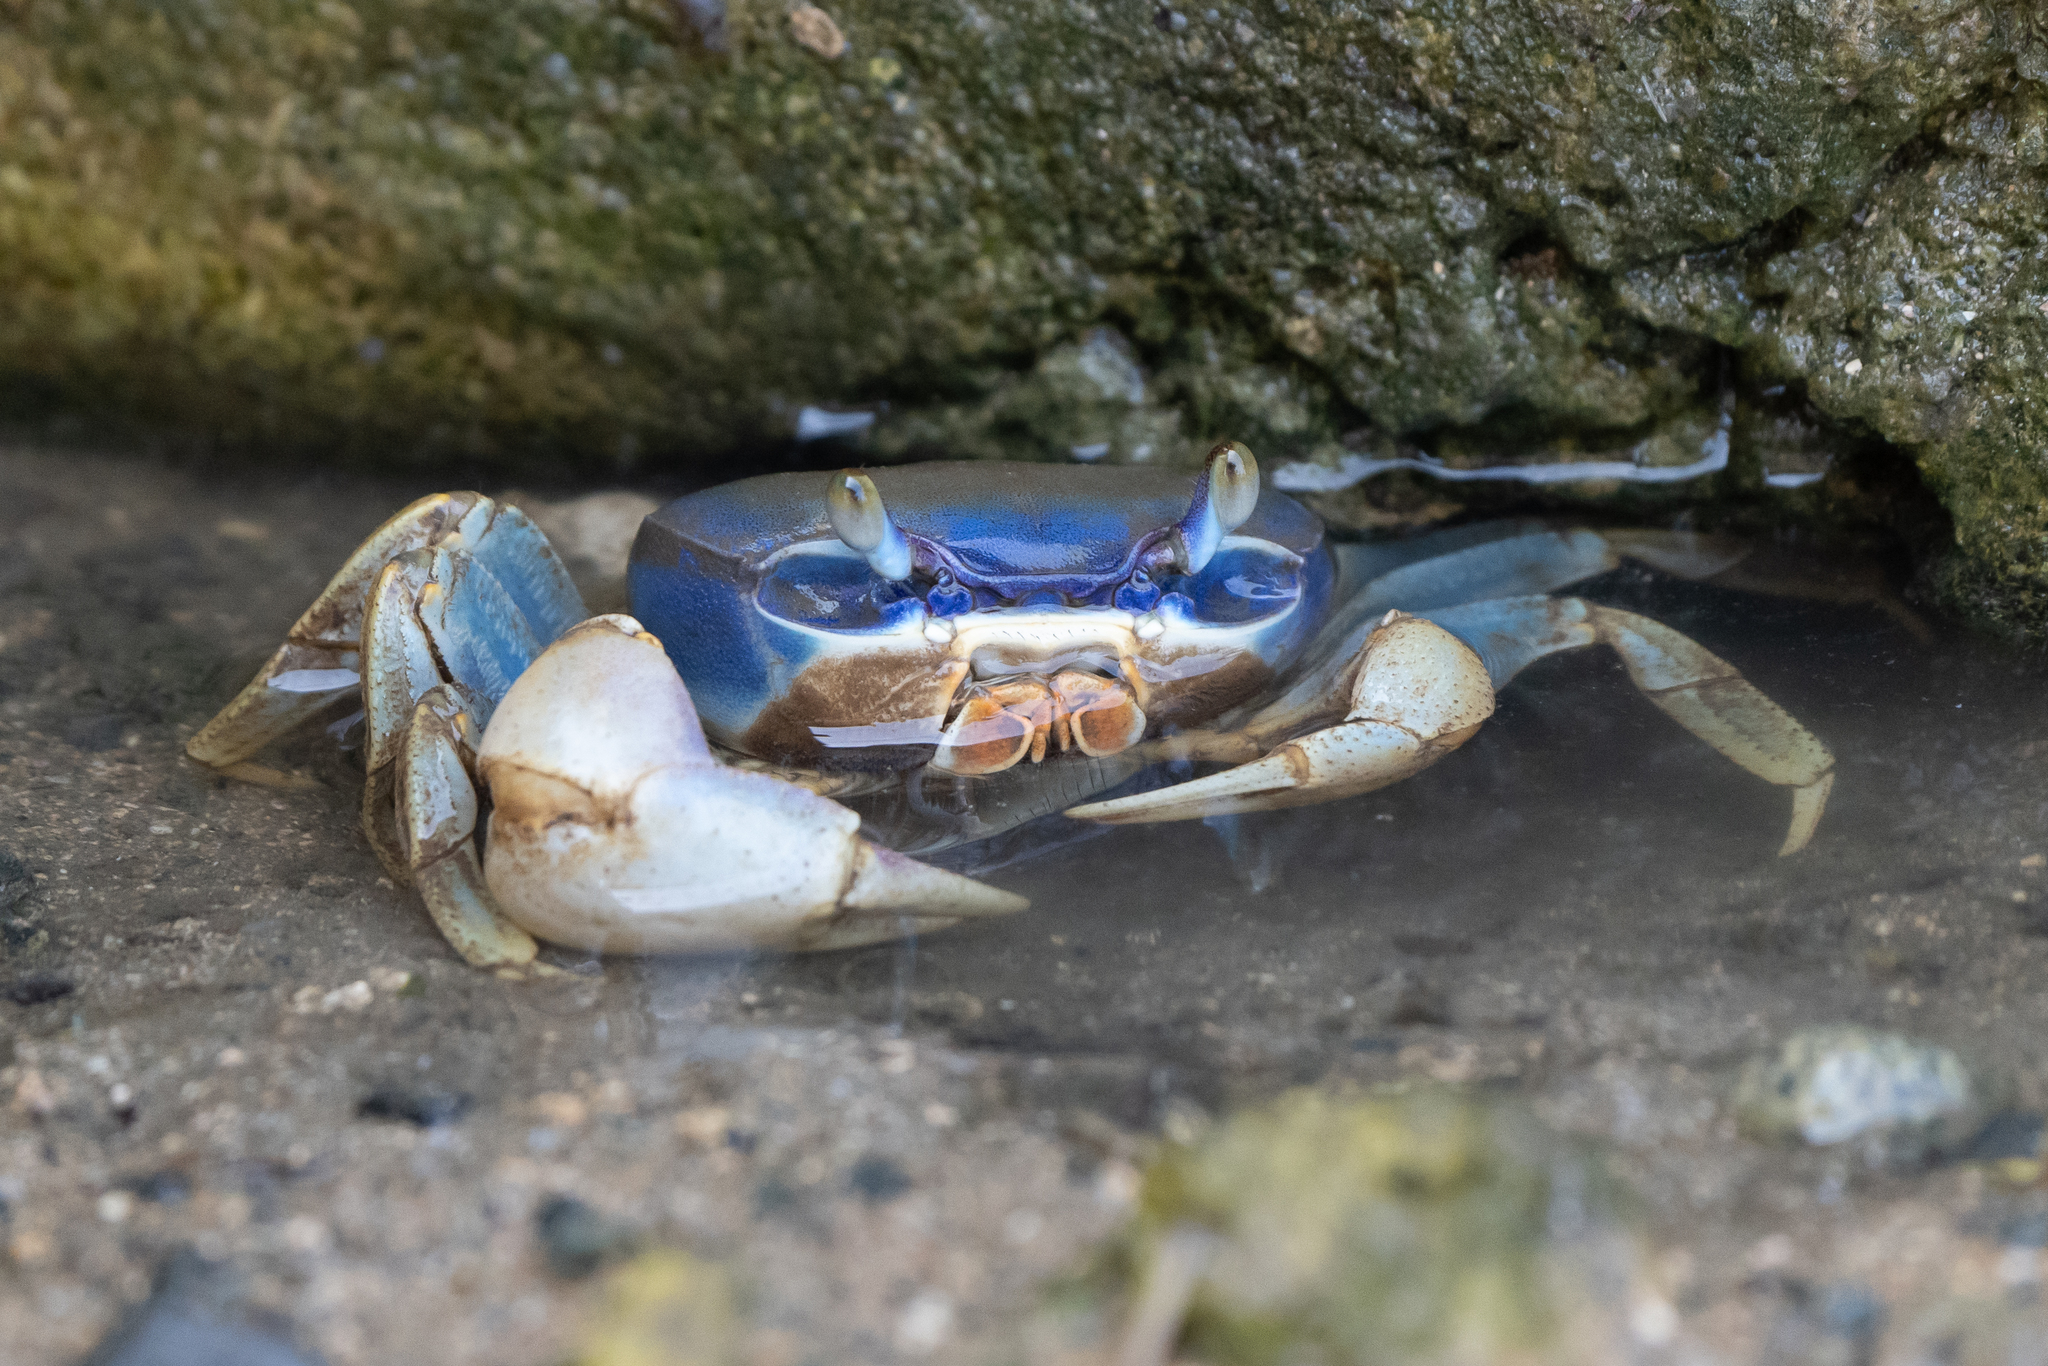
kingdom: Animalia
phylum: Arthropoda
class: Malacostraca
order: Decapoda
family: Gecarcinidae
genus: Cardisoma
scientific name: Cardisoma guanhumi
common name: Great land crab
